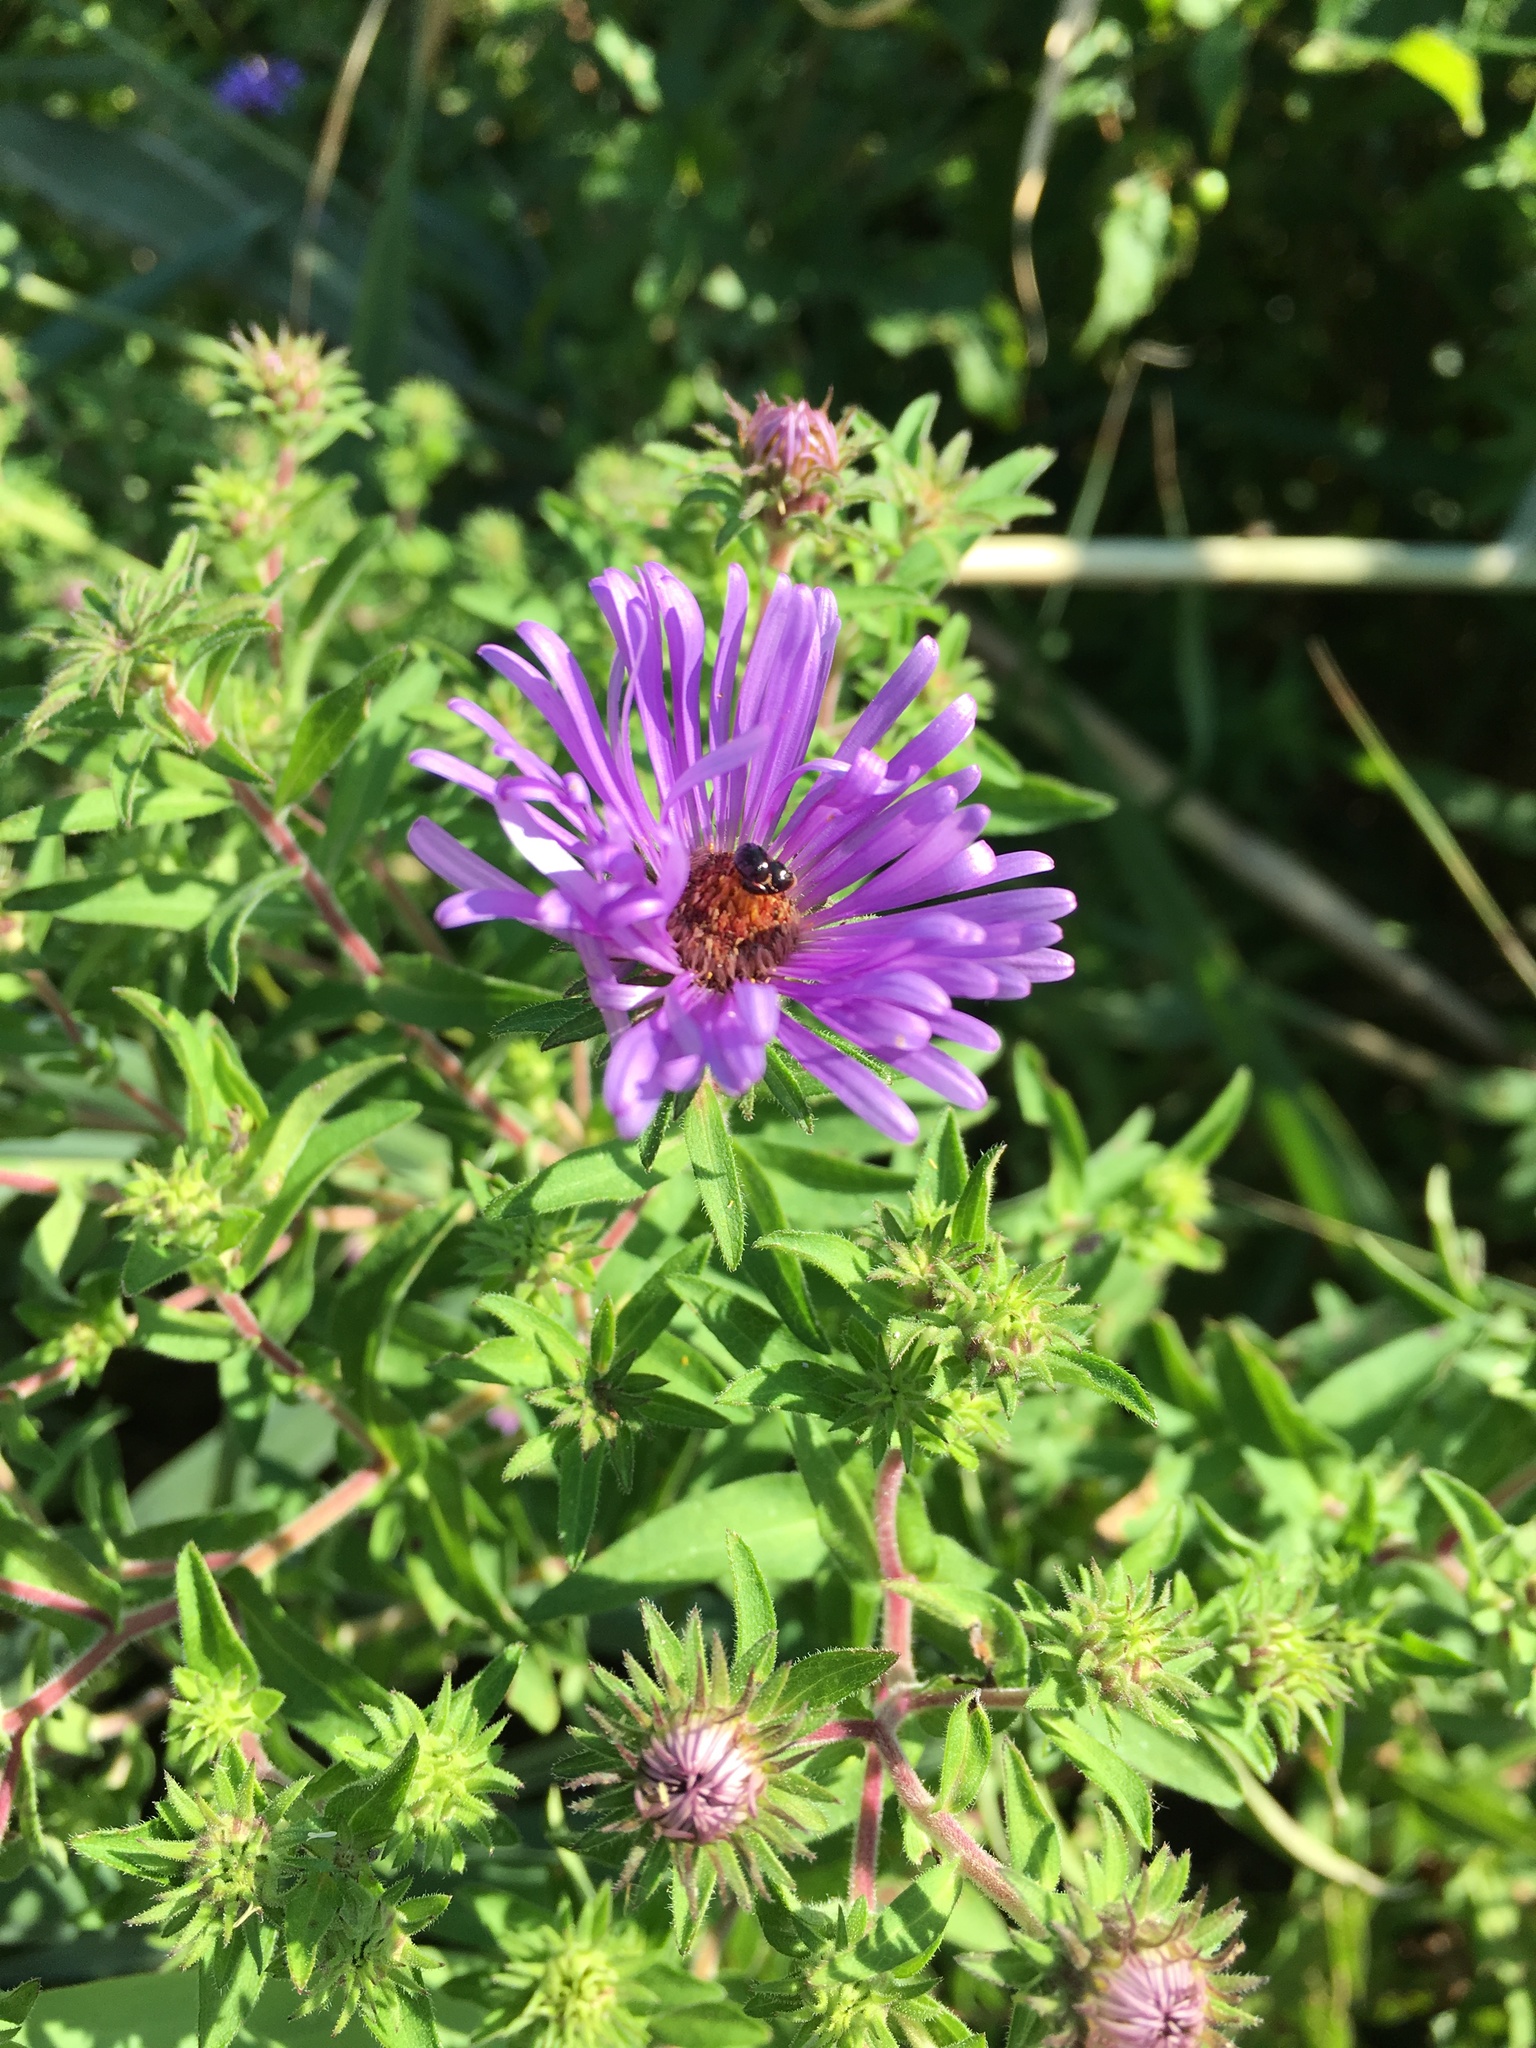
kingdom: Plantae
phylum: Tracheophyta
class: Magnoliopsida
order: Asterales
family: Asteraceae
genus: Symphyotrichum
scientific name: Symphyotrichum novae-angliae
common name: Michaelmas daisy
